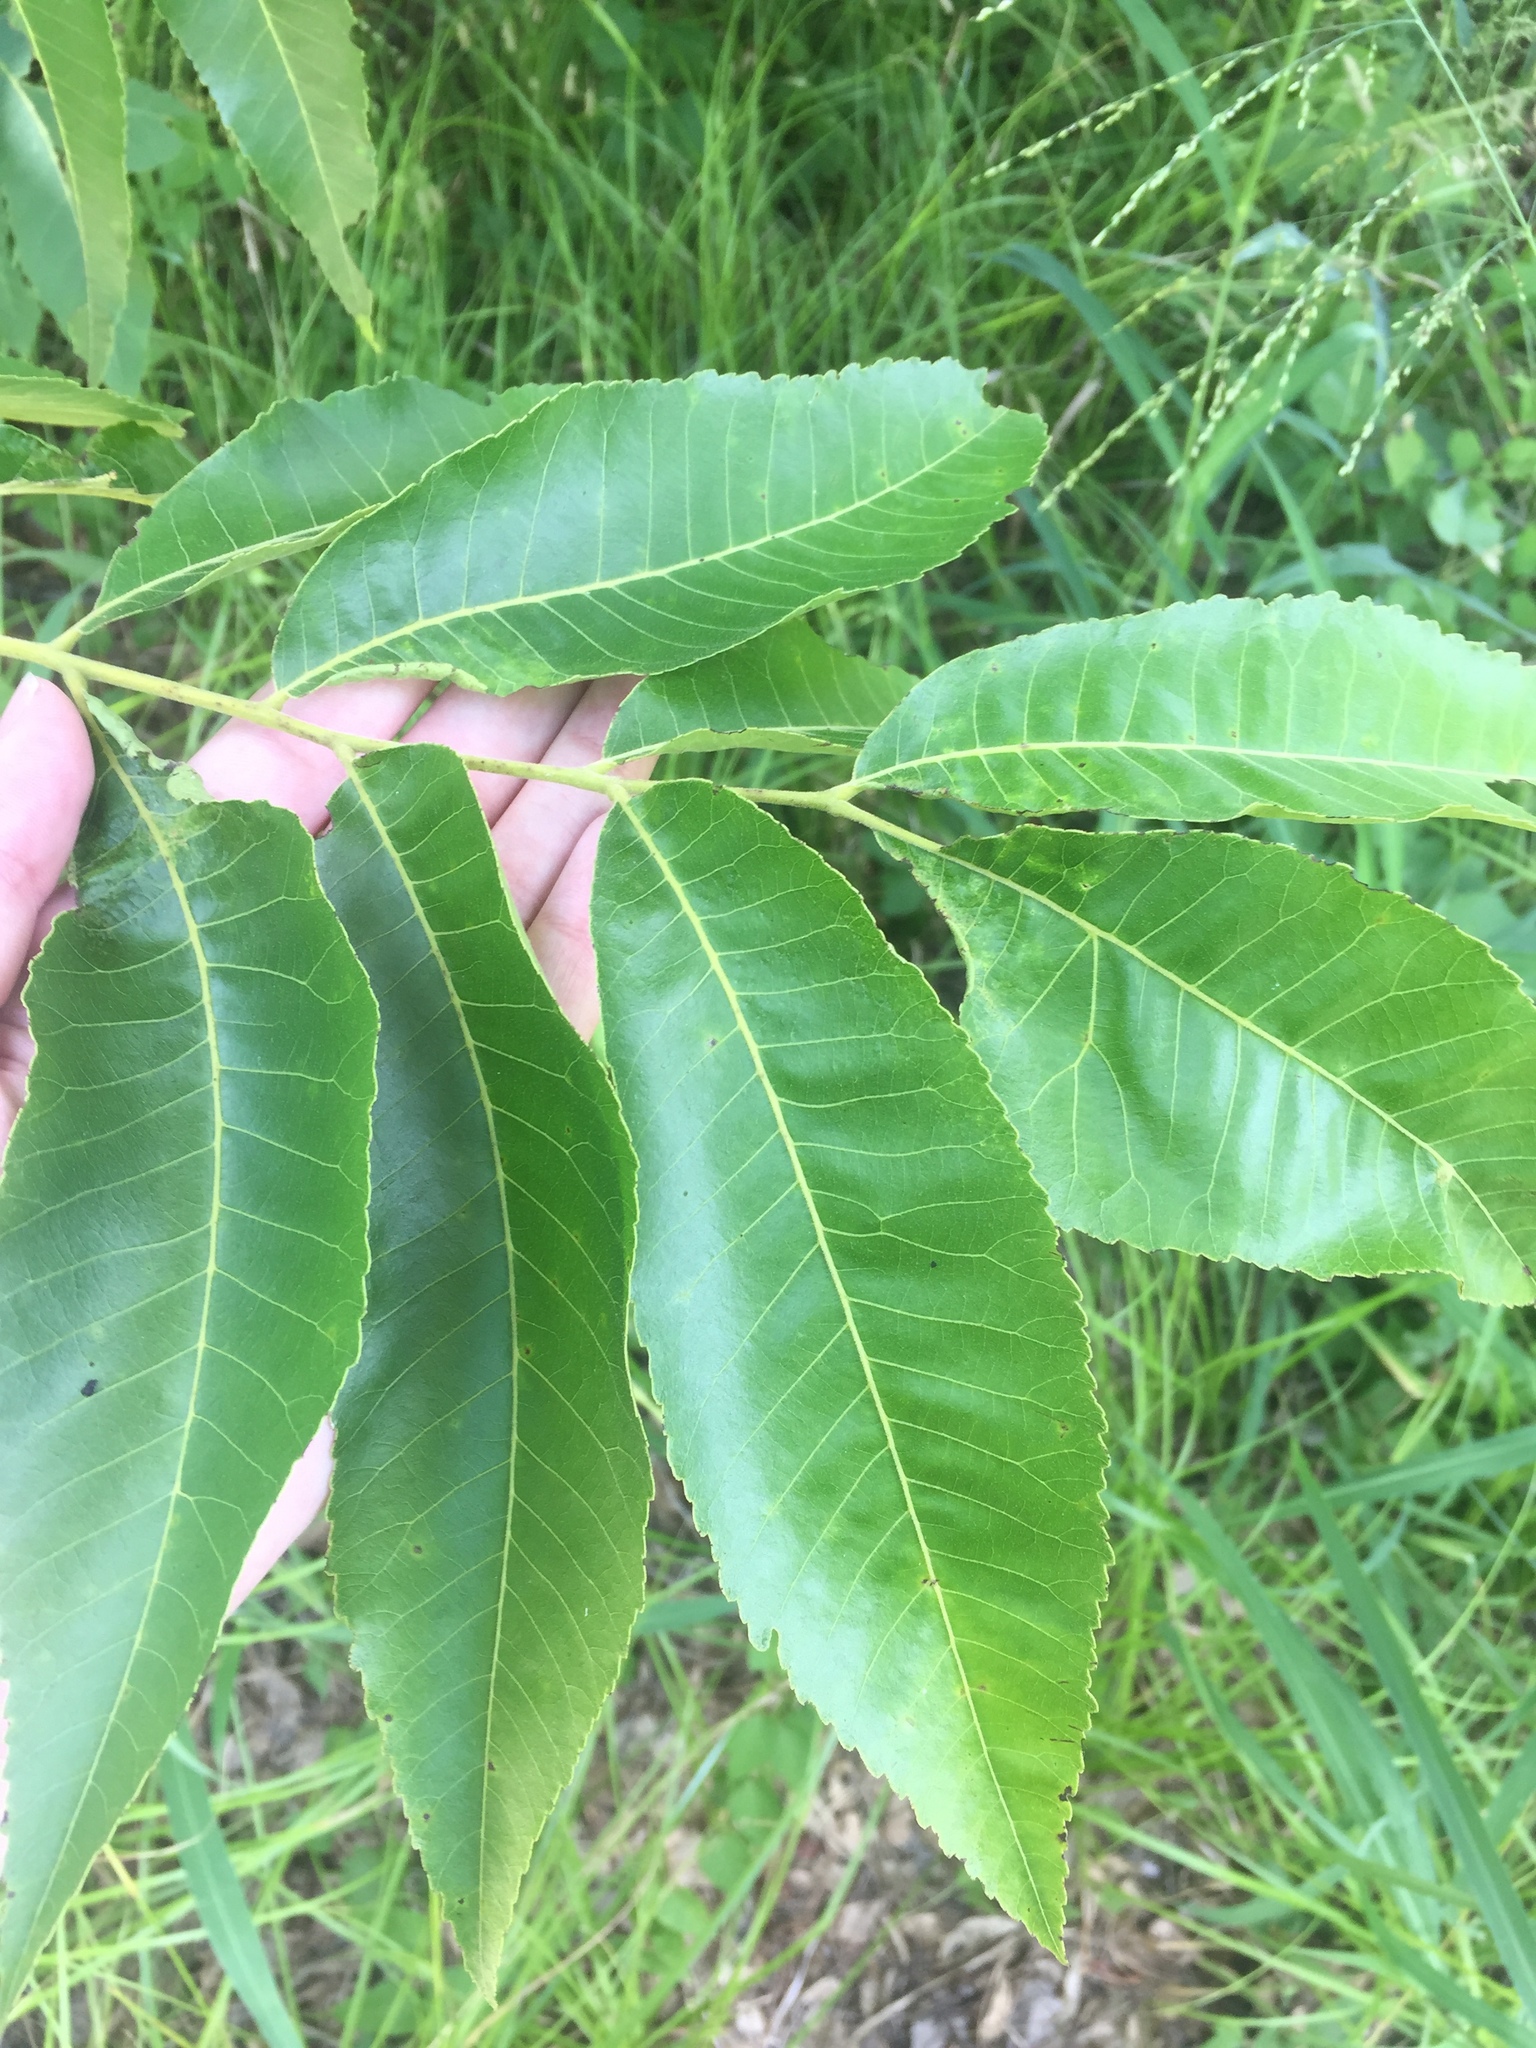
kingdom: Plantae
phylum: Tracheophyta
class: Magnoliopsida
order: Fagales
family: Juglandaceae
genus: Carya
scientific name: Carya illinoinensis
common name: Pecan
